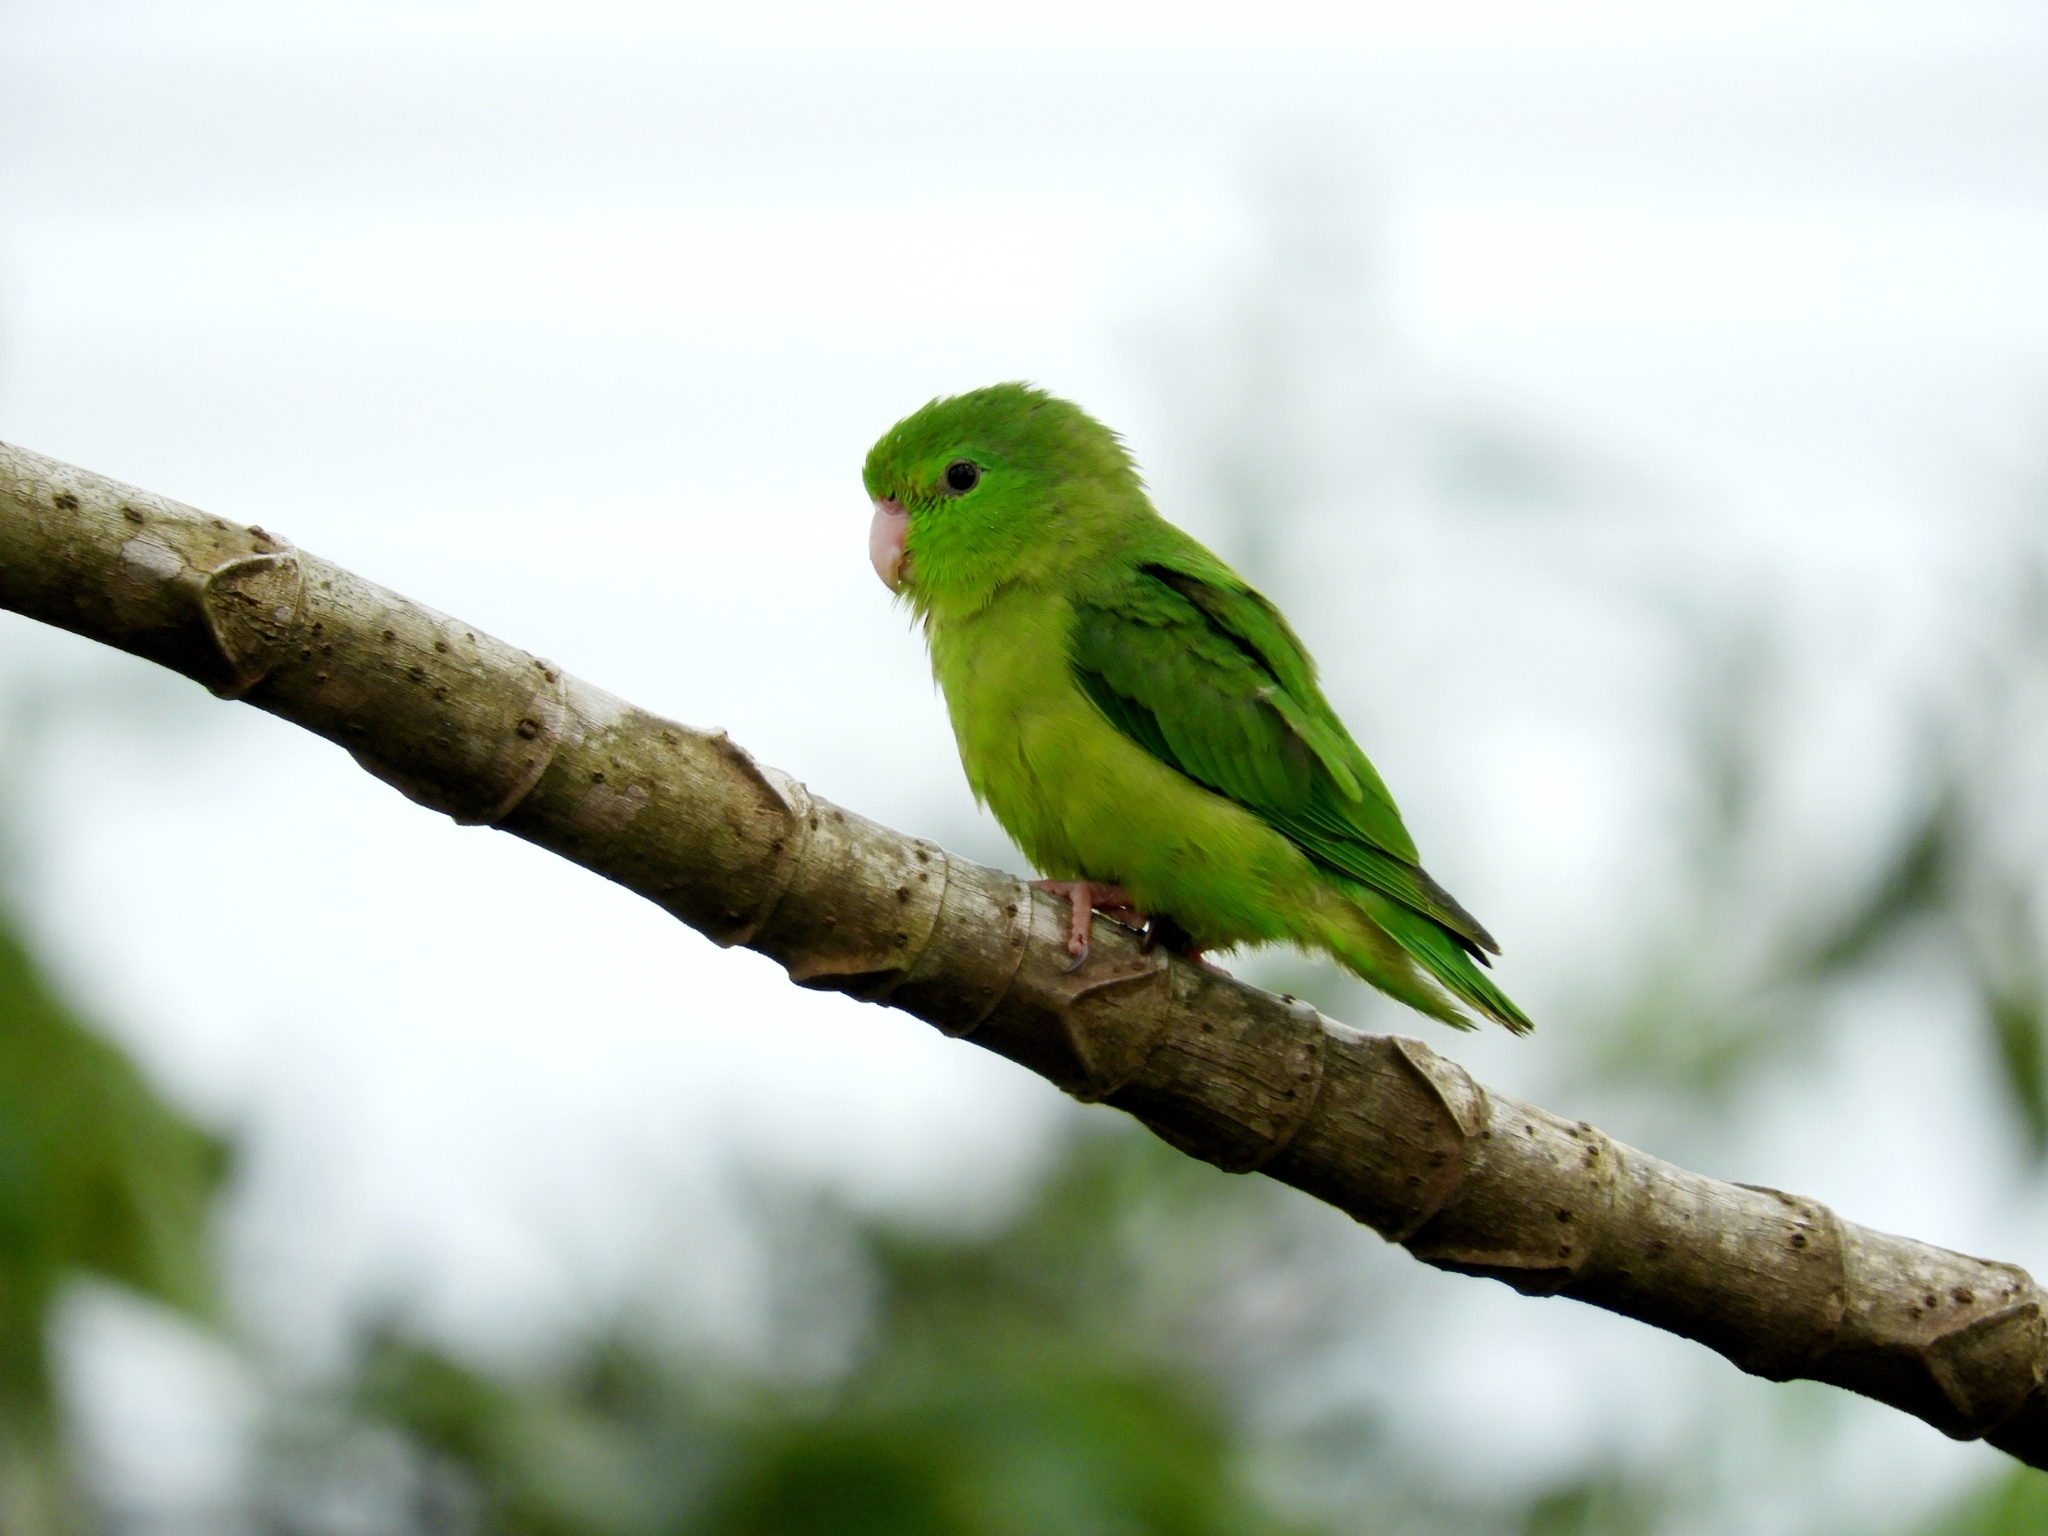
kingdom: Animalia
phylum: Chordata
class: Aves
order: Psittaciformes
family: Psittacidae
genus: Forpus
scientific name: Forpus conspicillatus
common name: Spectacled parrotlet
